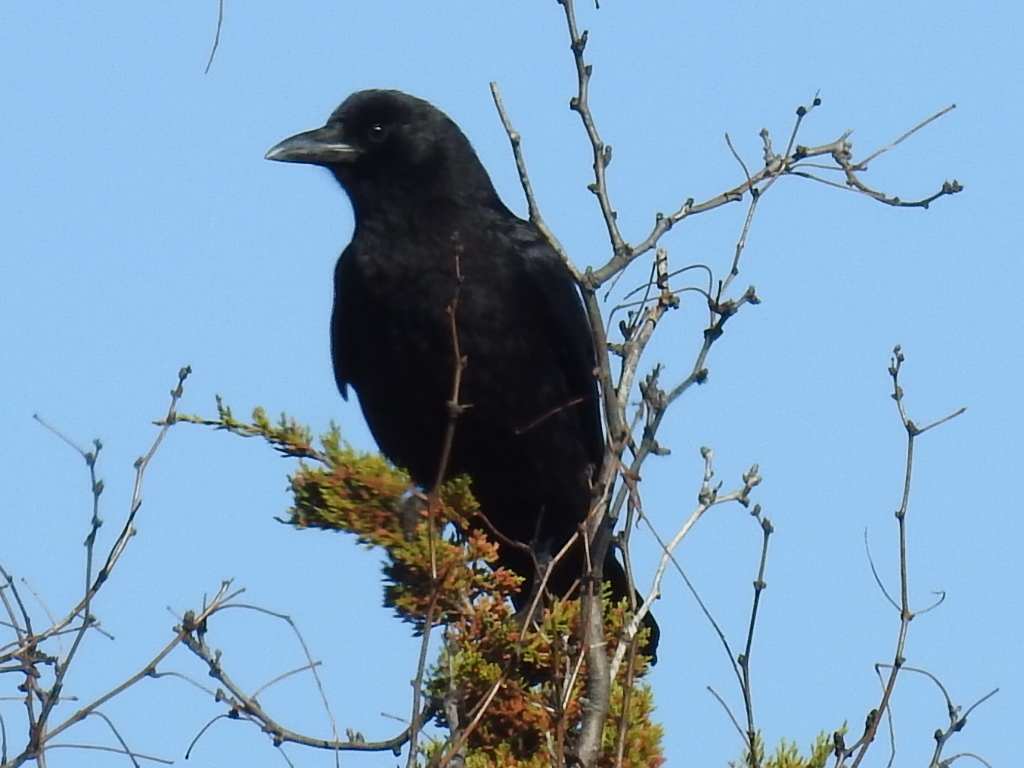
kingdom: Animalia
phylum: Chordata
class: Aves
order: Passeriformes
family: Corvidae
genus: Corvus
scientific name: Corvus brachyrhynchos
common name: American crow
